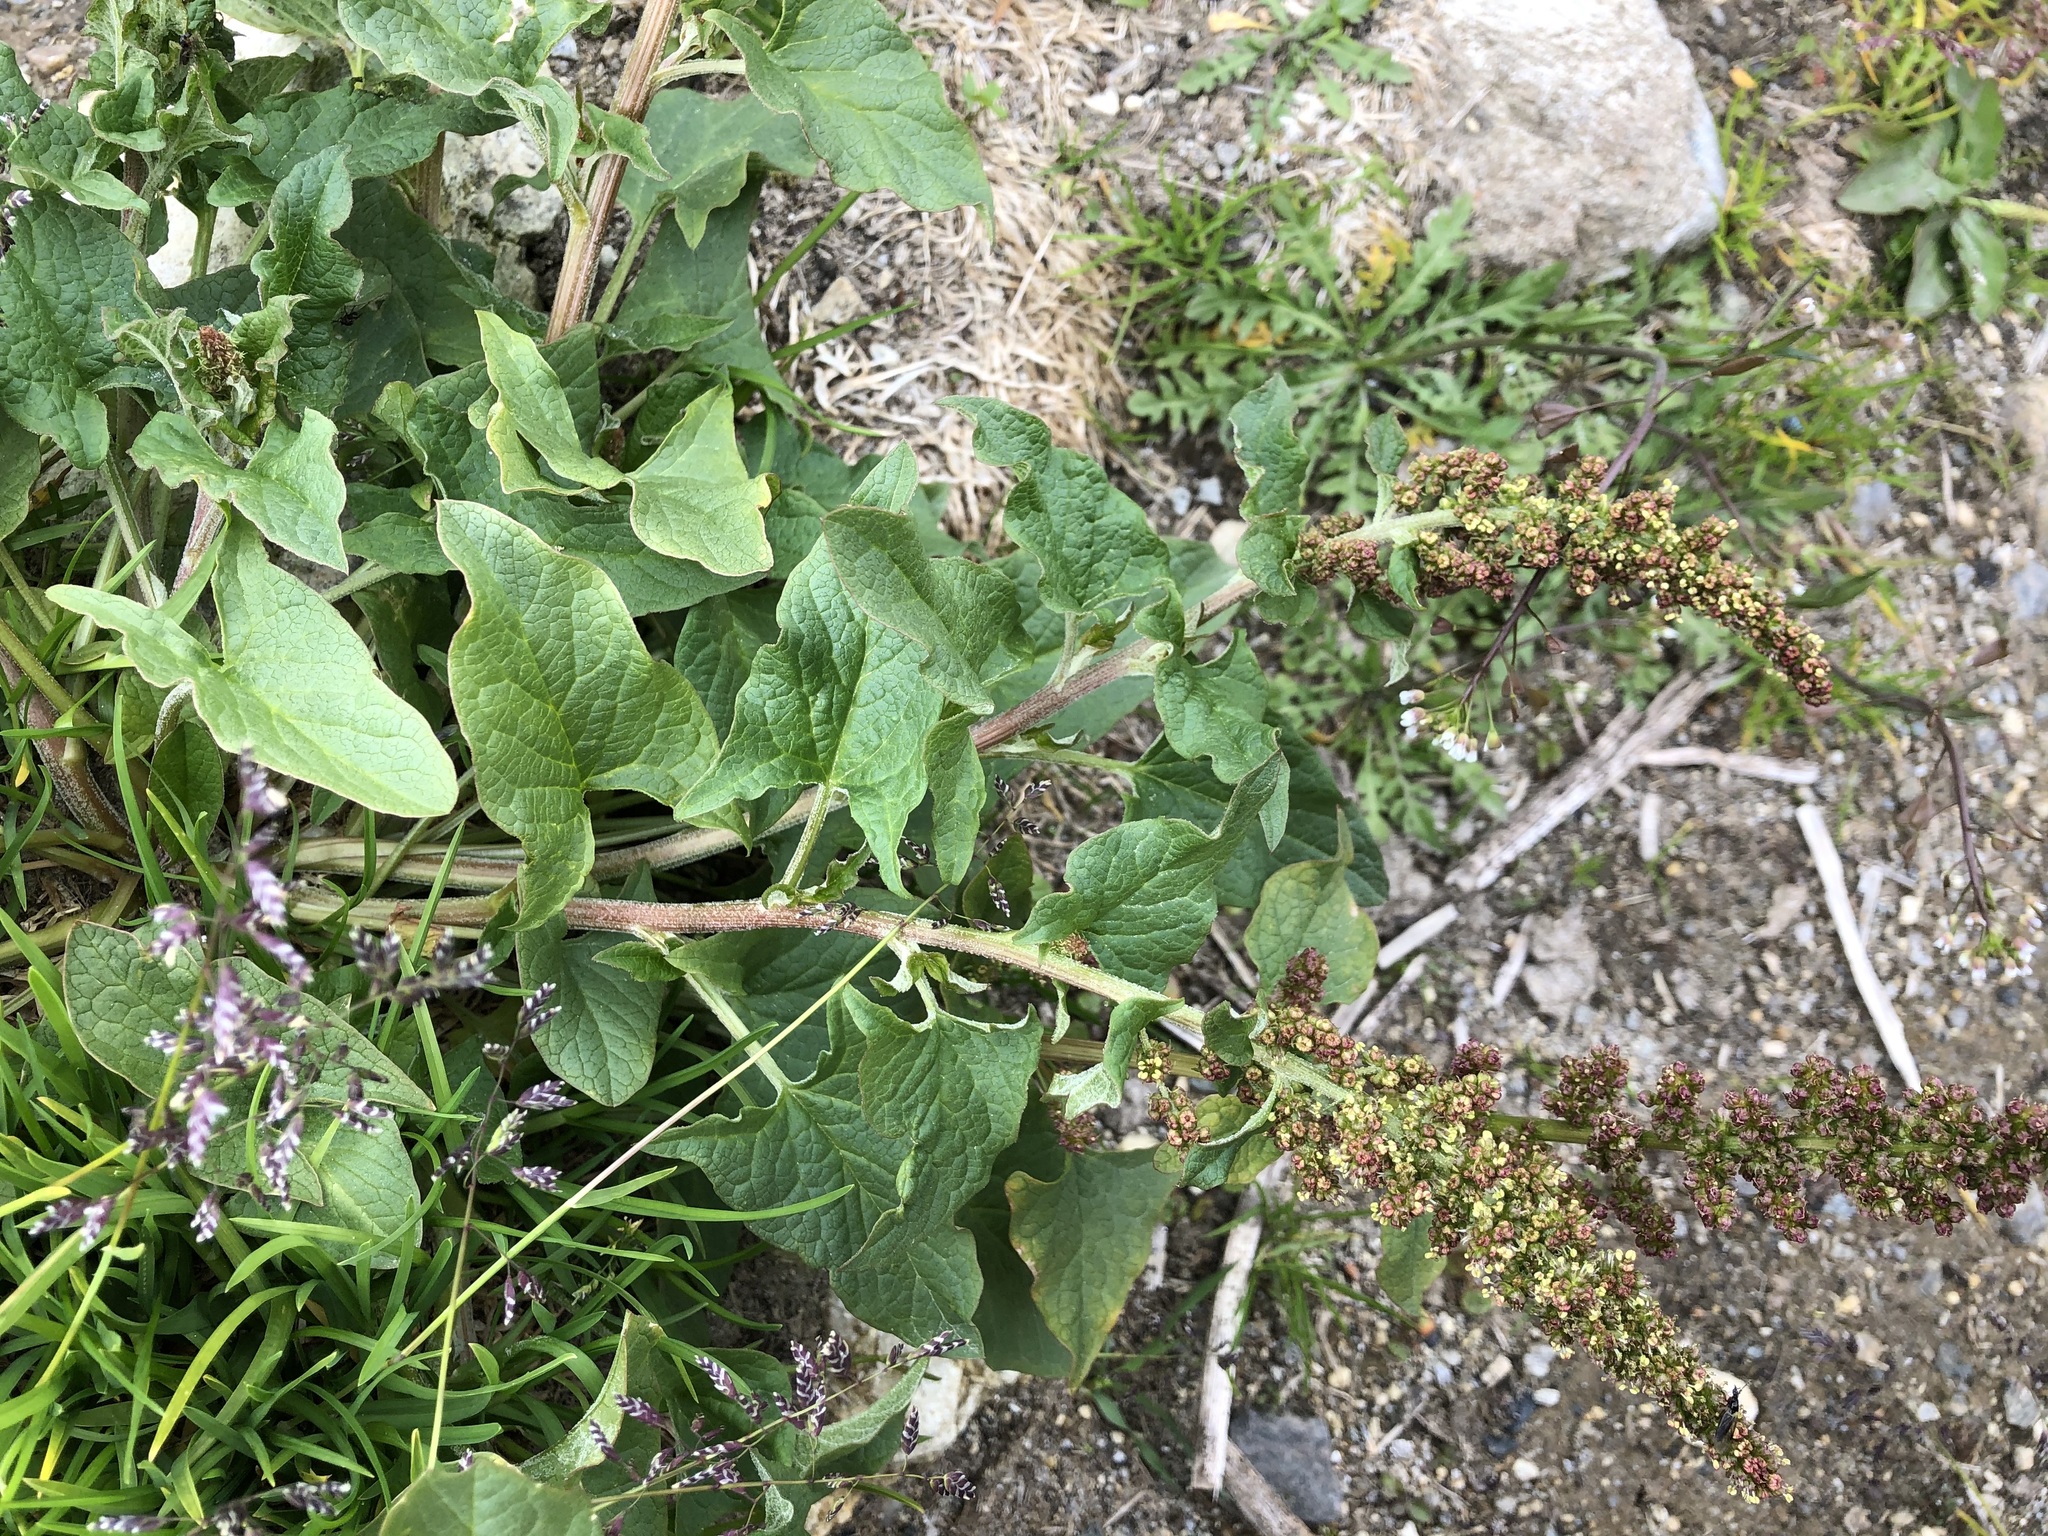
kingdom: Plantae
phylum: Tracheophyta
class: Magnoliopsida
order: Caryophyllales
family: Amaranthaceae
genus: Blitum
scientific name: Blitum bonus-henricus
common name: Good king henry
